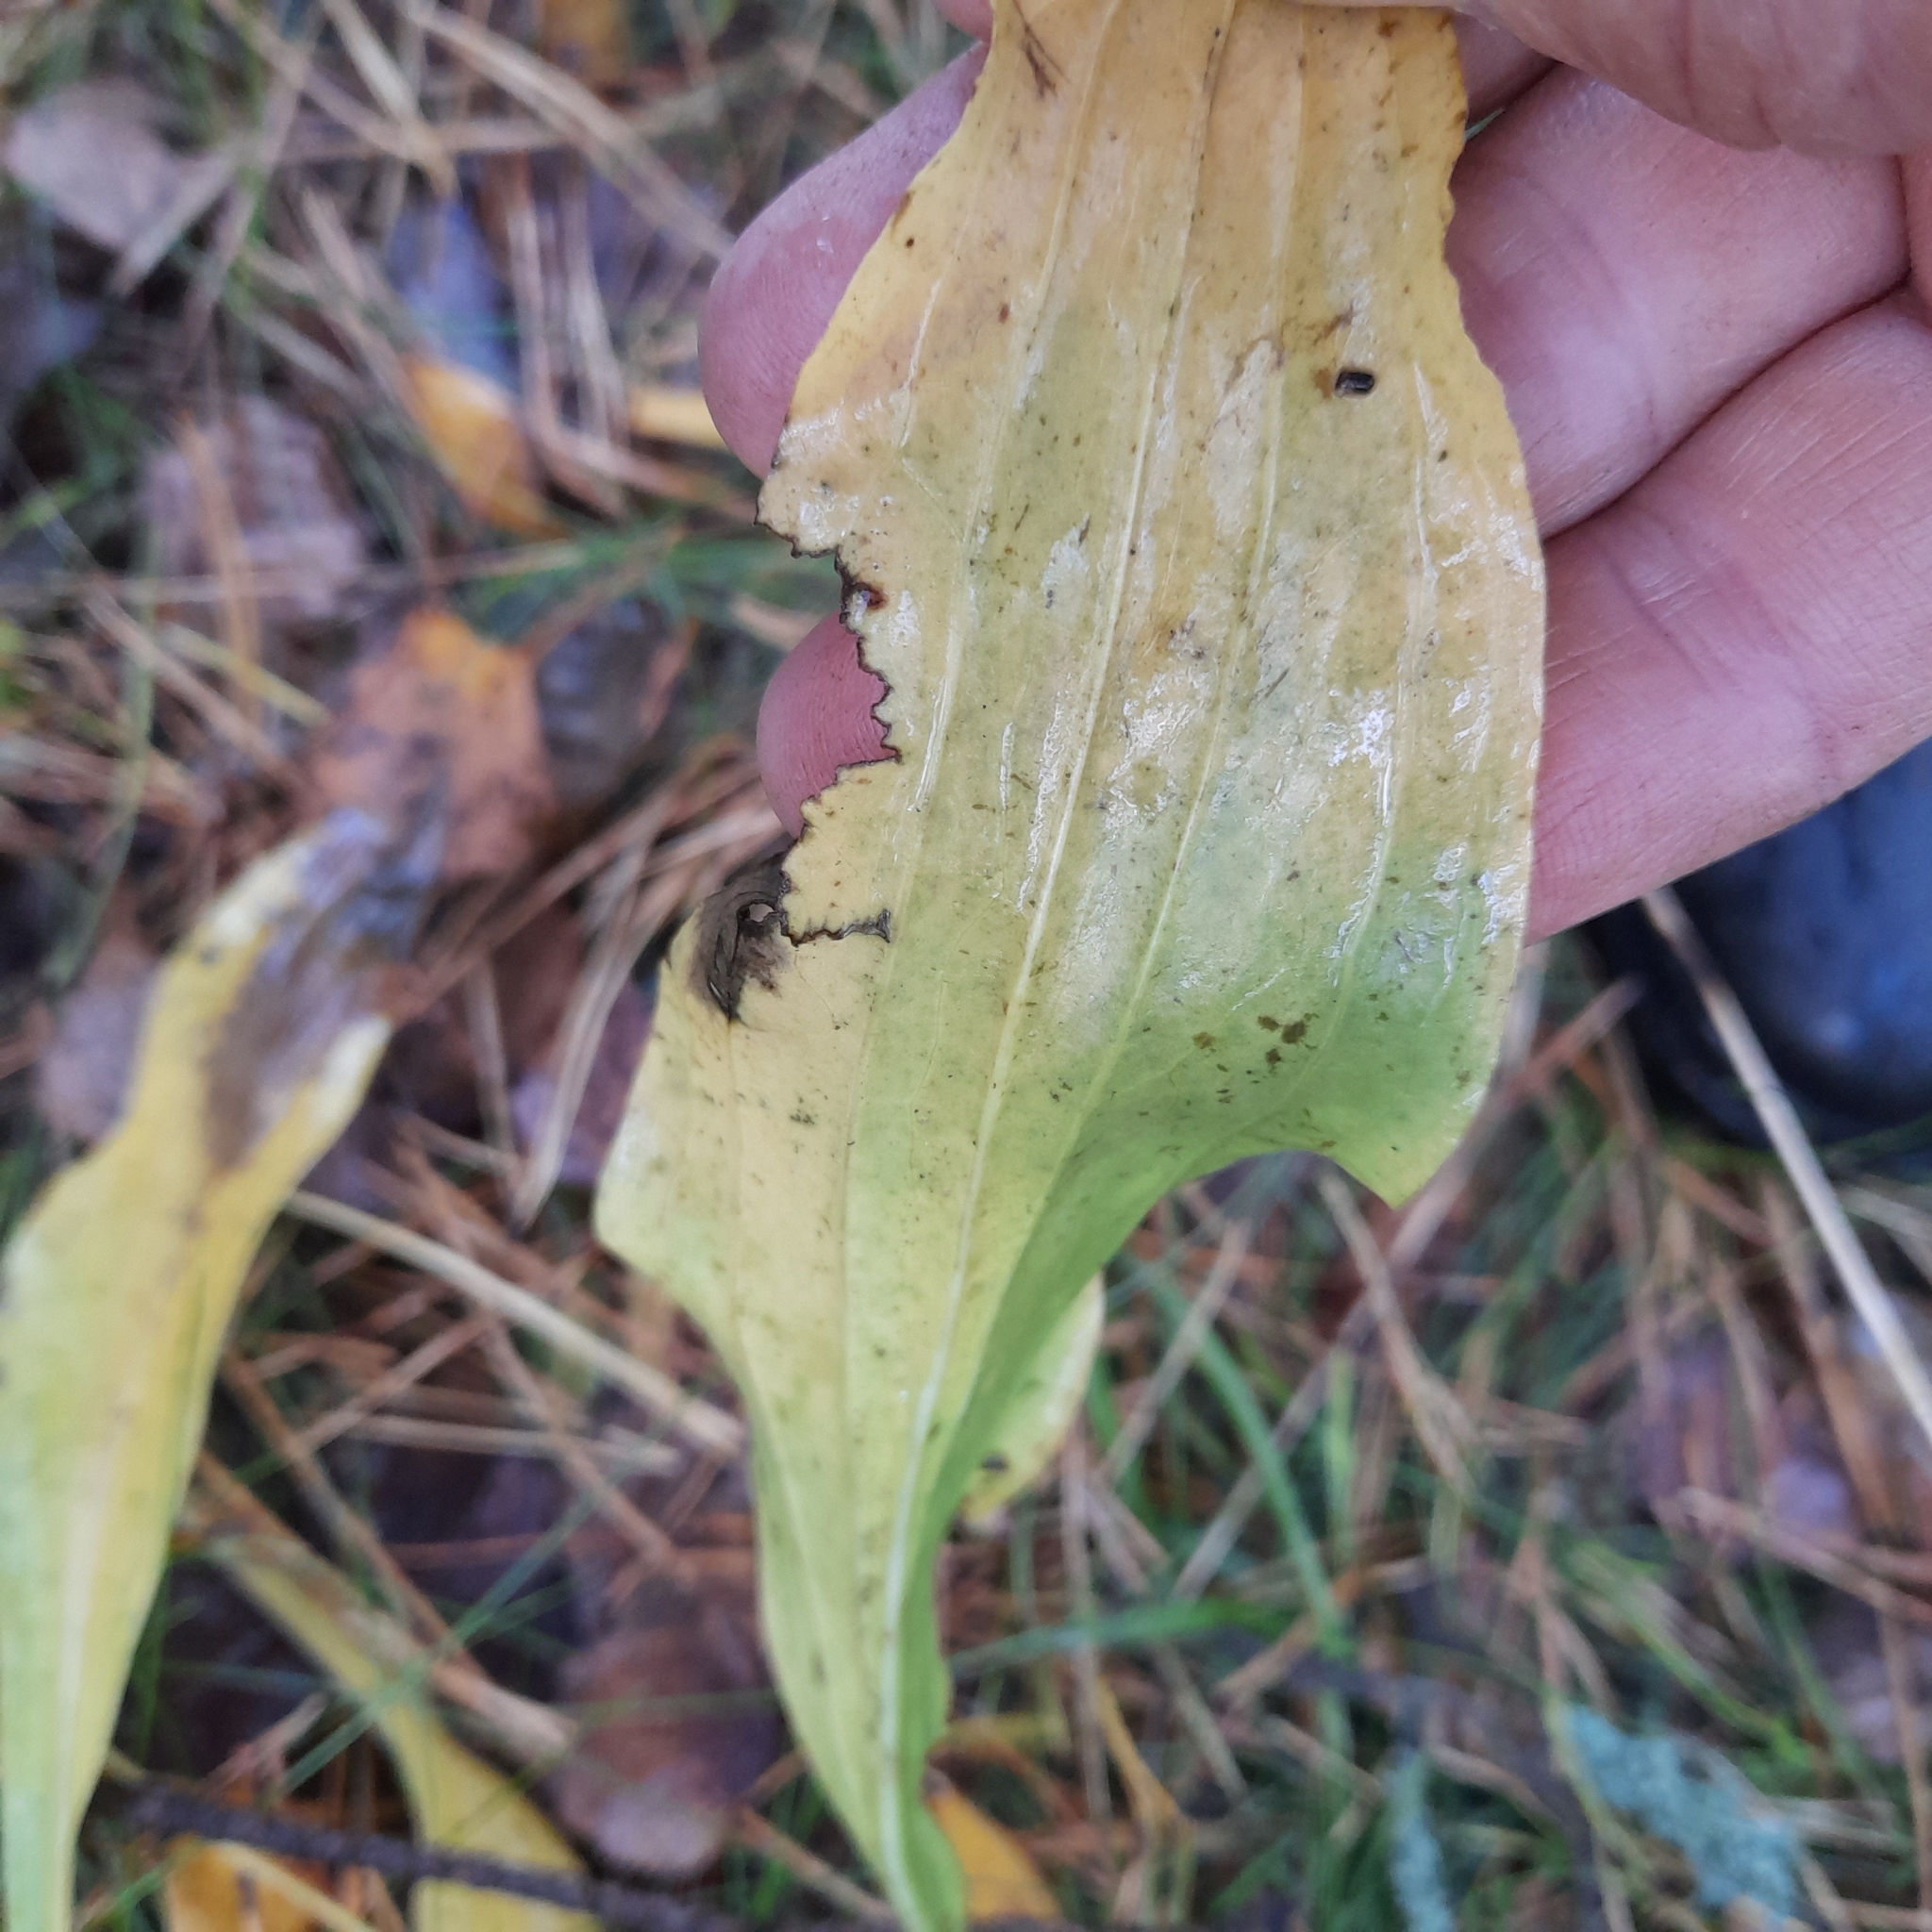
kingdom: Plantae
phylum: Tracheophyta
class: Magnoliopsida
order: Asterales
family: Asteraceae
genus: Scorzonera
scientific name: Scorzonera humilis
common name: Viper's-grass
